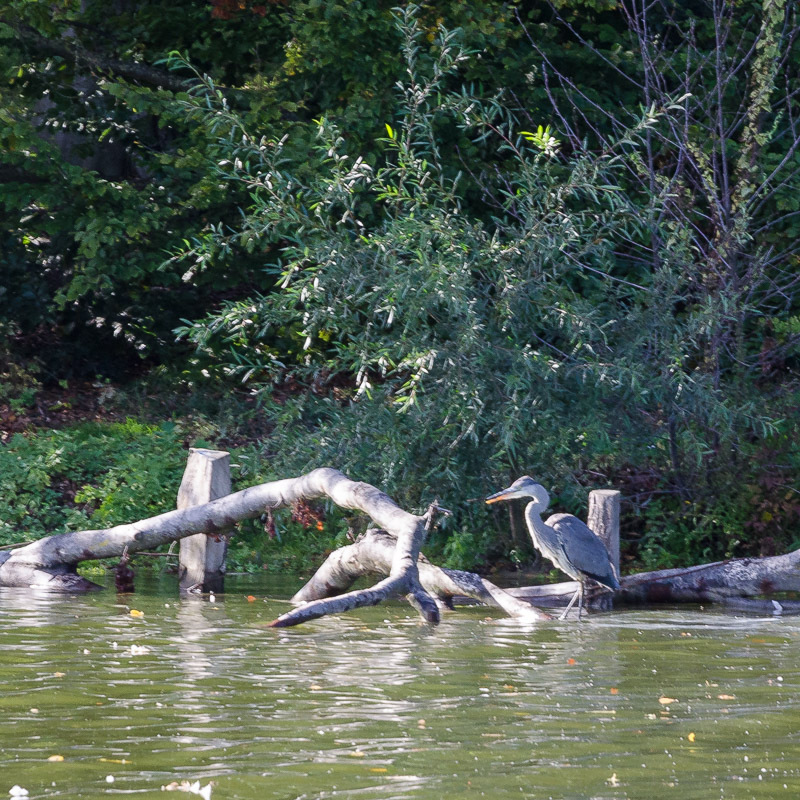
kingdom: Animalia
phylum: Chordata
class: Aves
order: Pelecaniformes
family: Ardeidae
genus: Ardea
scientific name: Ardea cinerea
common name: Grey heron
